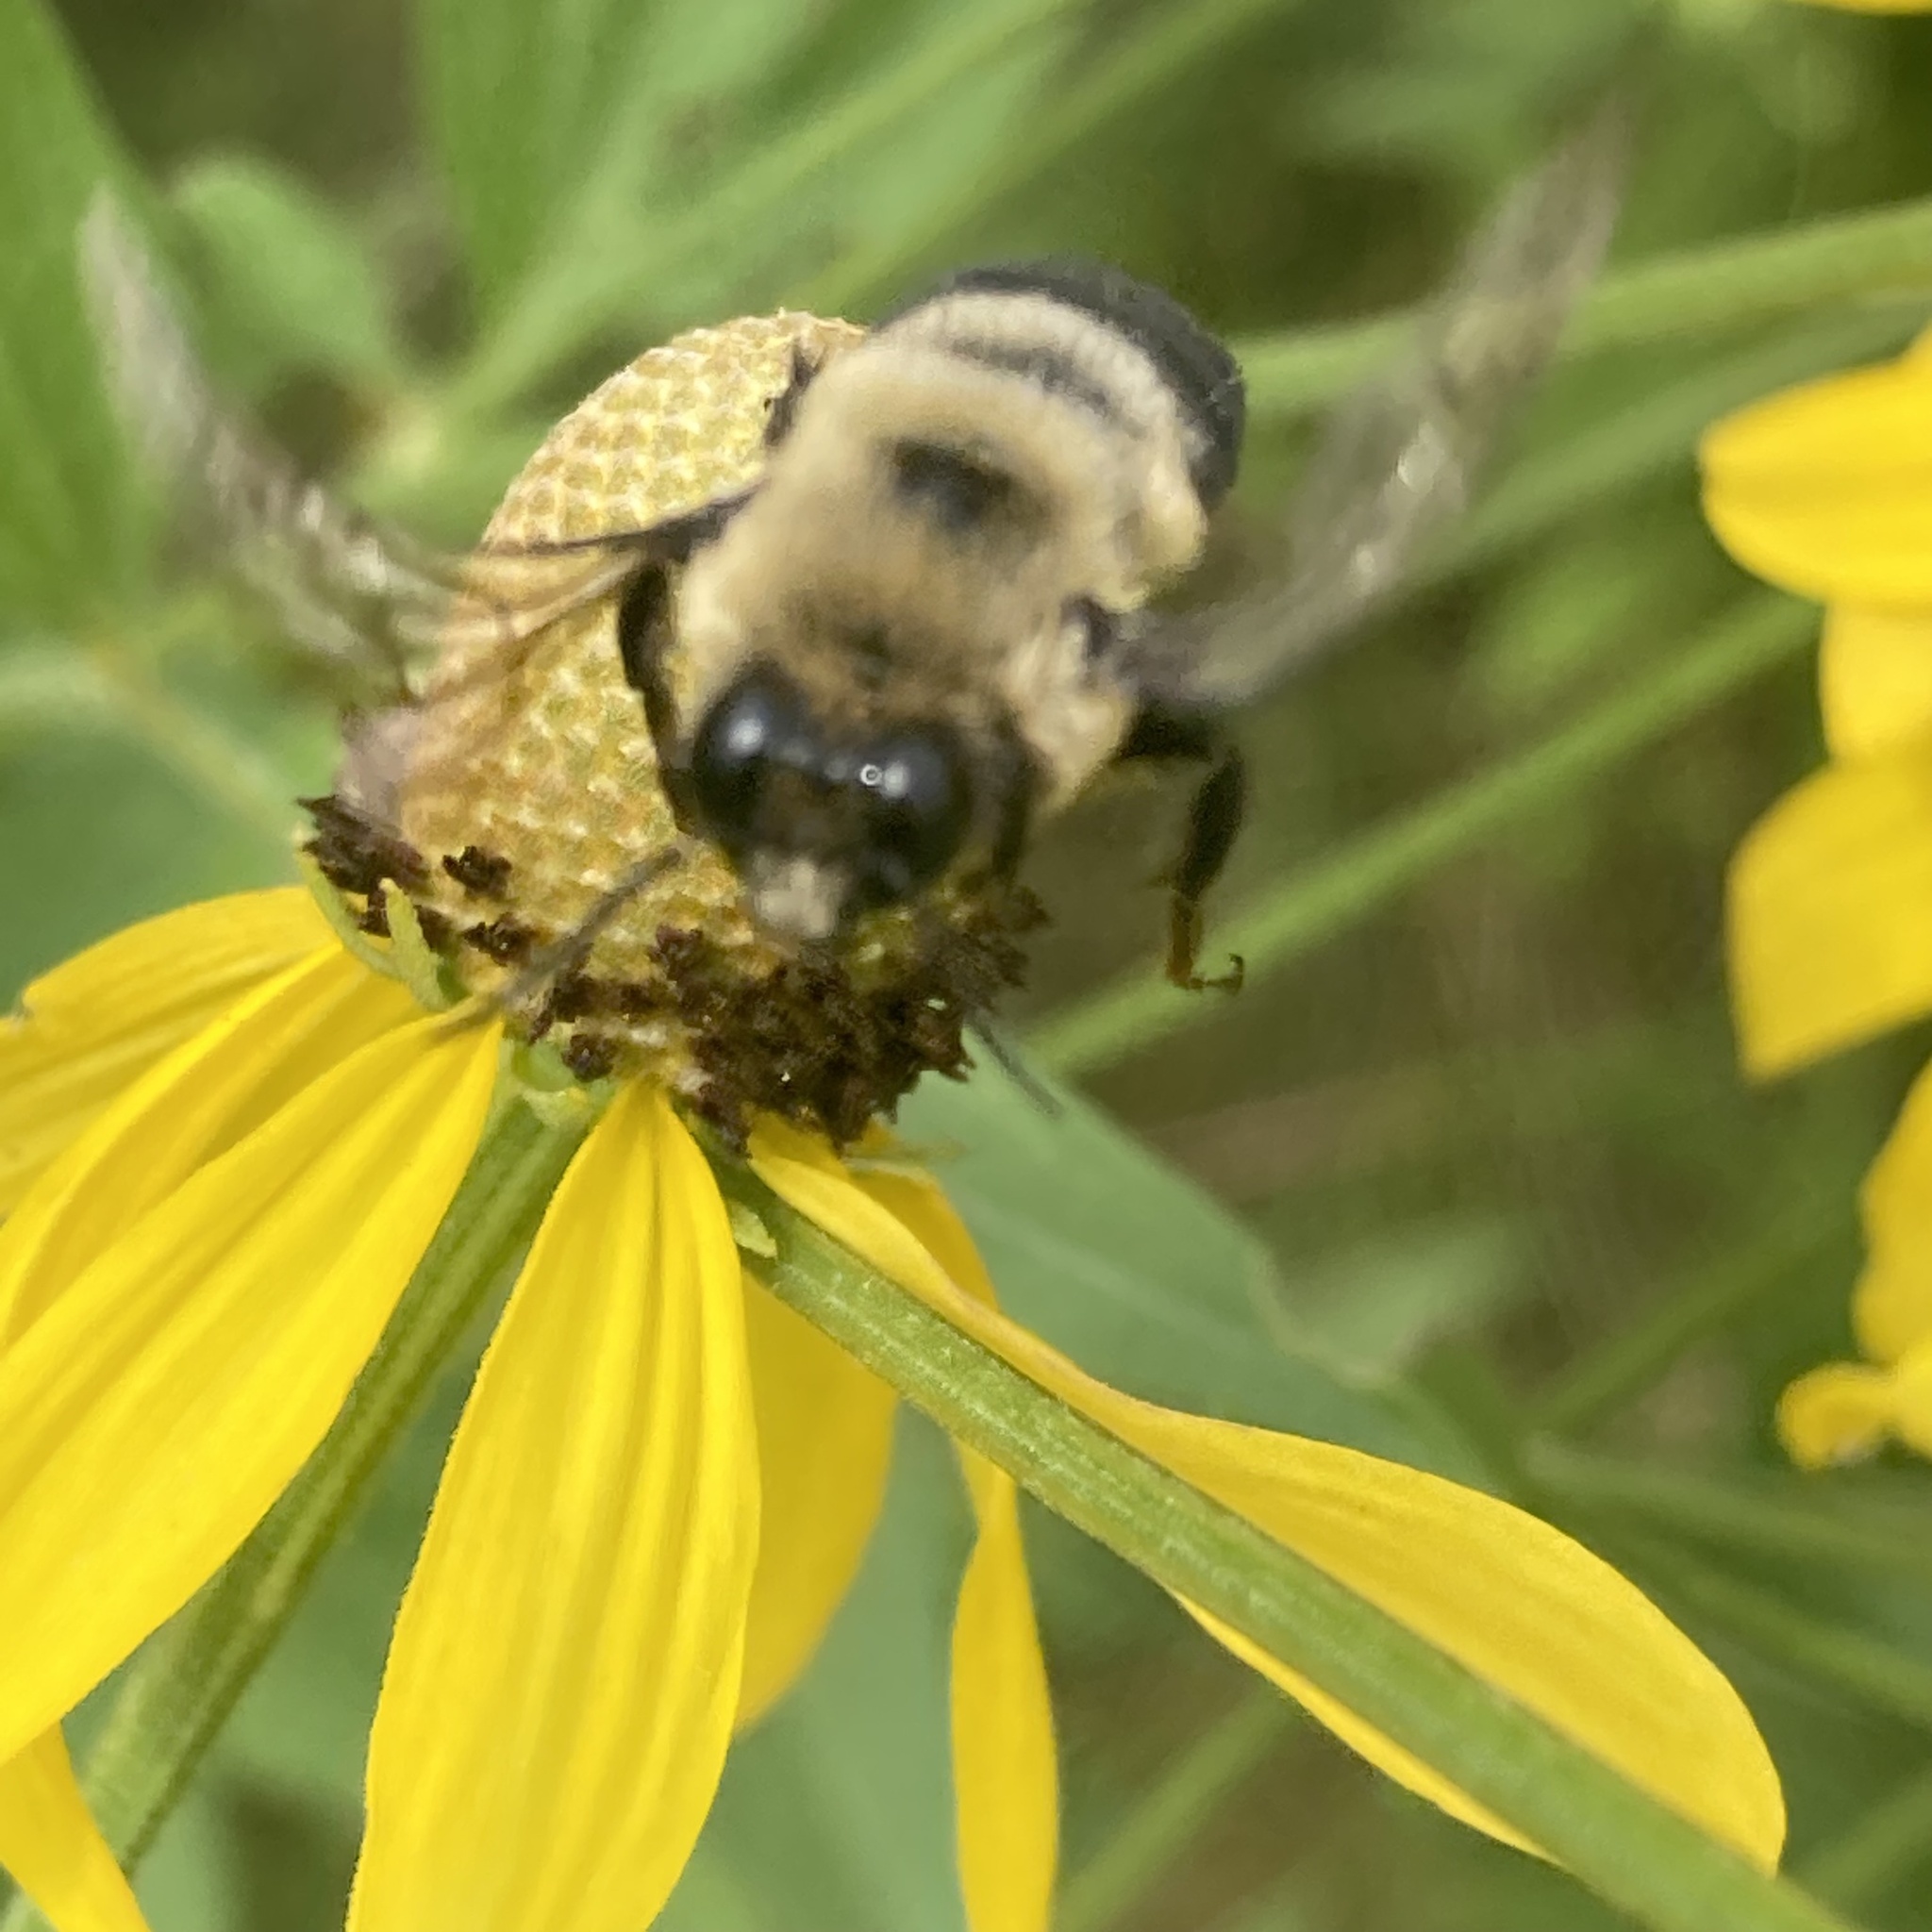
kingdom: Animalia
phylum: Arthropoda
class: Insecta
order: Hymenoptera
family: Apidae
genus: Bombus
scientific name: Bombus griseocollis
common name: Brown-belted bumble bee
